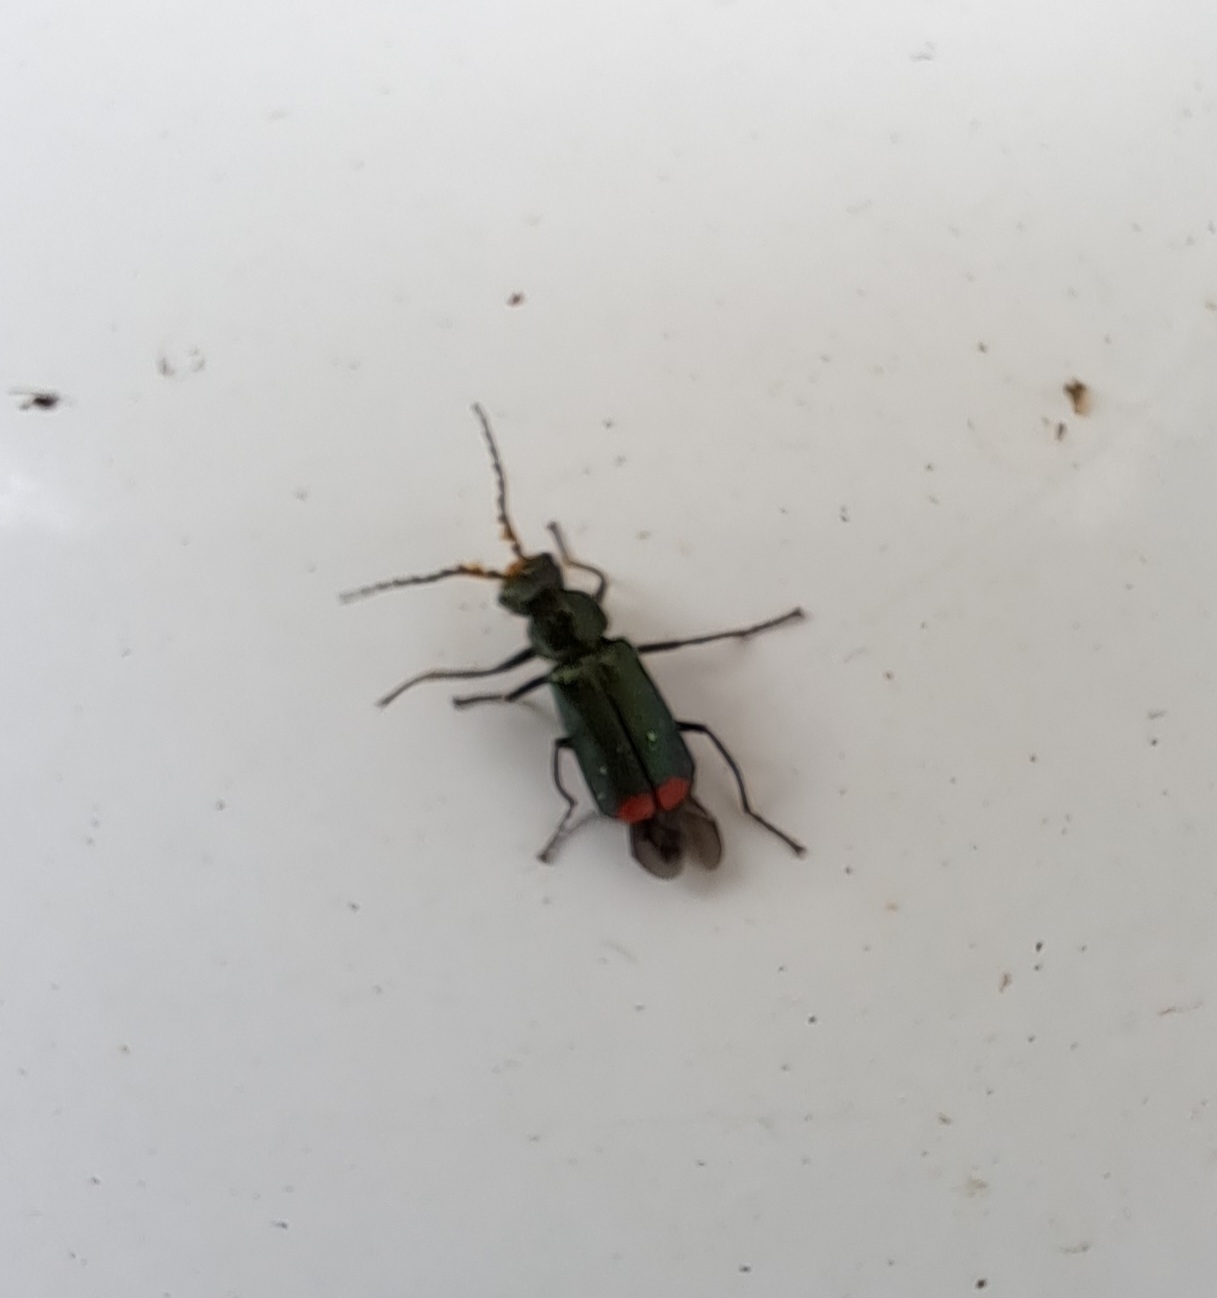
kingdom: Animalia
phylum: Arthropoda
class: Insecta
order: Coleoptera
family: Melyridae
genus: Malachius
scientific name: Malachius bipustulatus
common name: Malachite beetle
